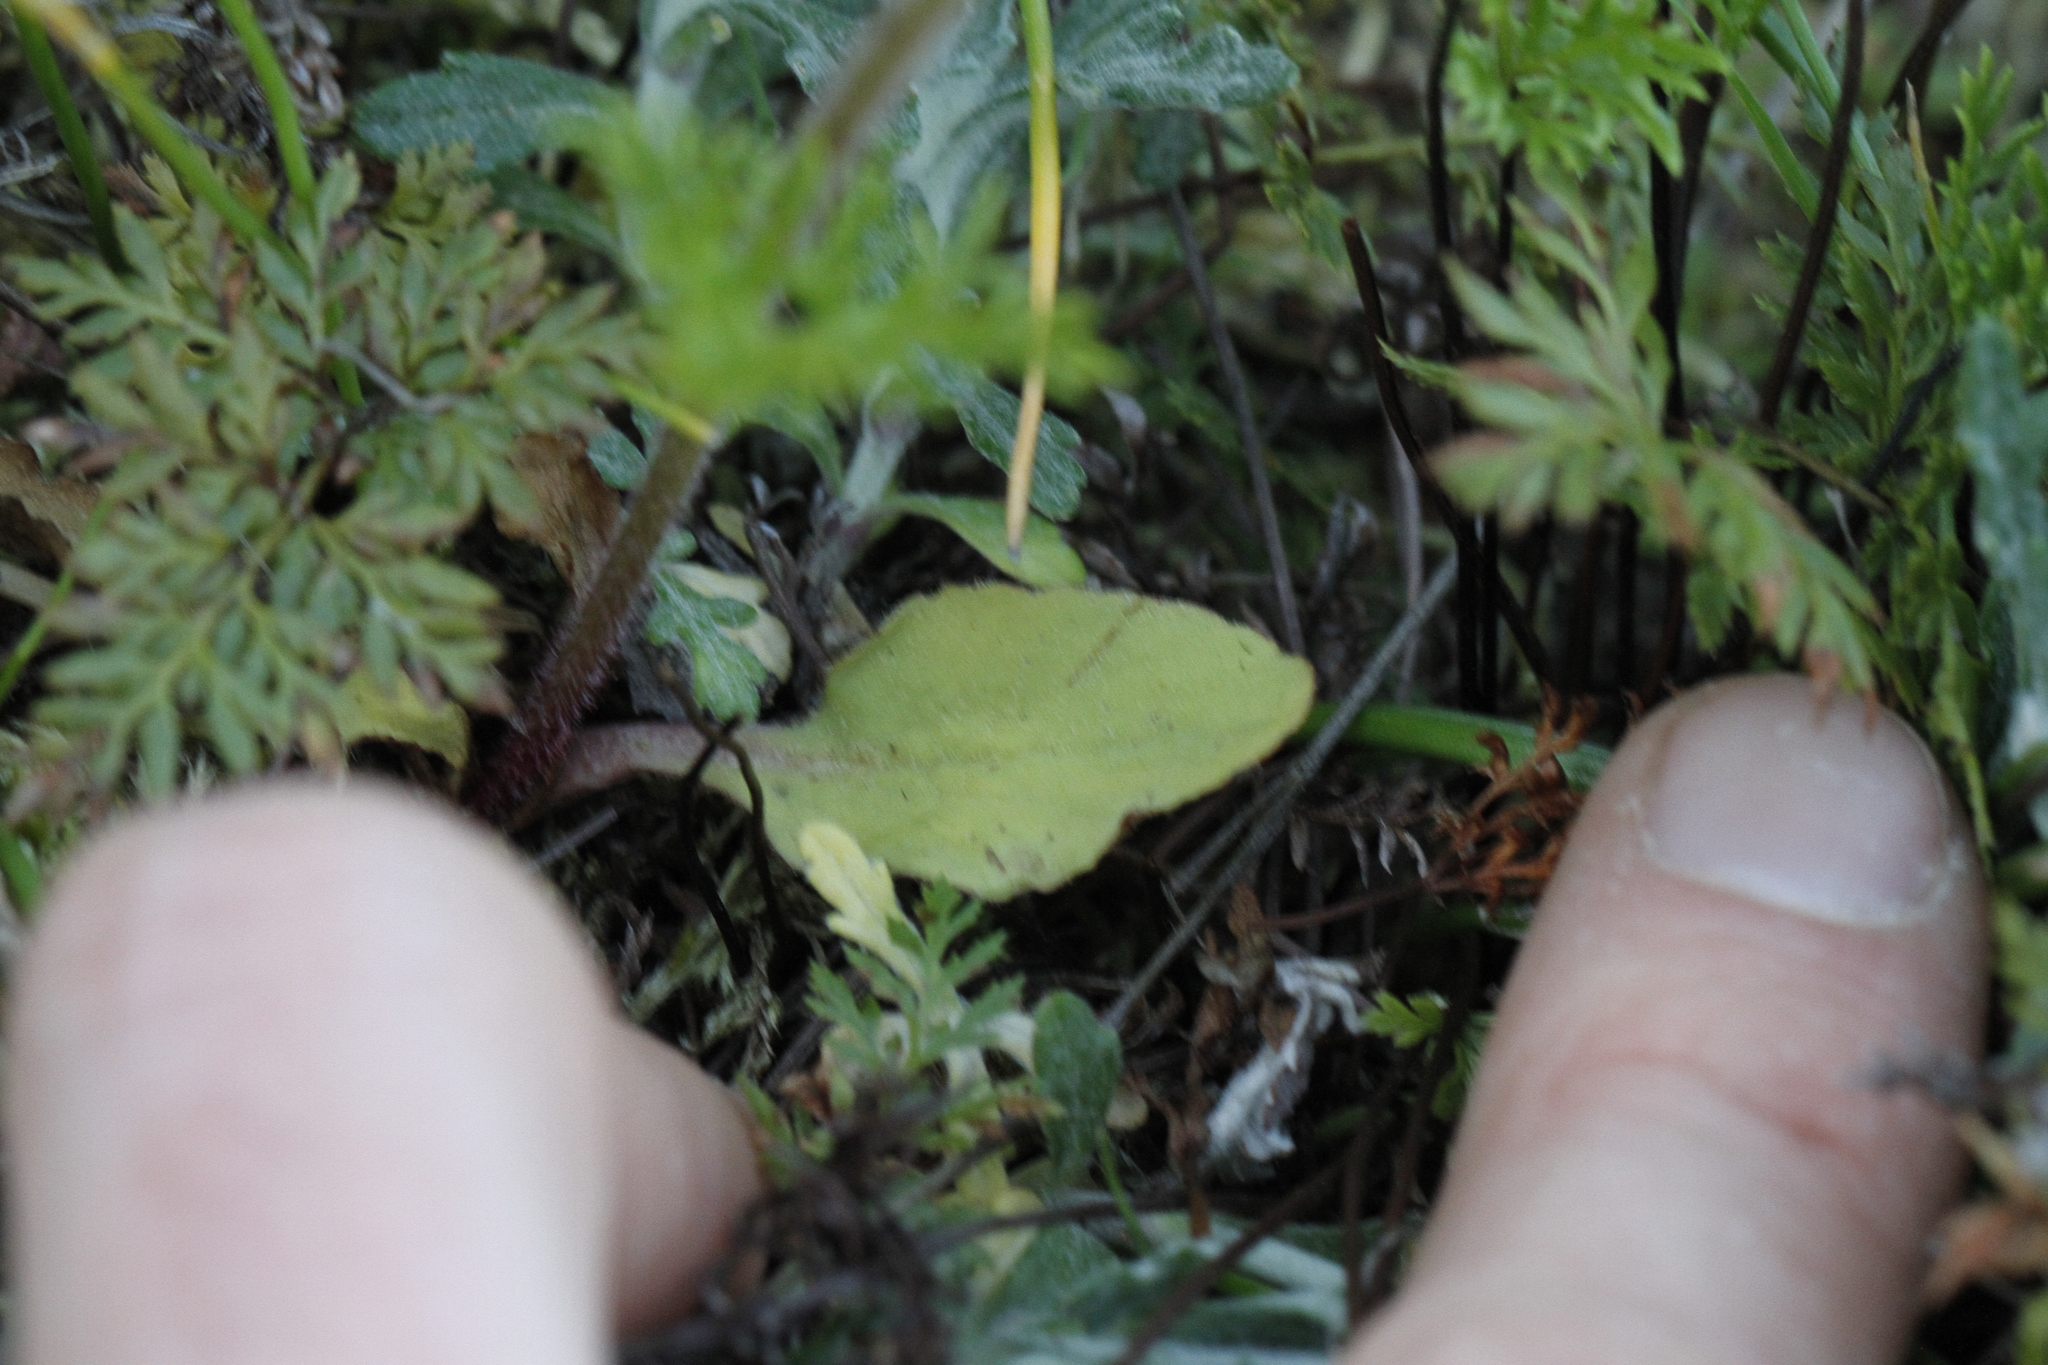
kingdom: Plantae
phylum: Tracheophyta
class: Magnoliopsida
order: Saxifragales
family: Saxifragaceae
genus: Micranthes
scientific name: Micranthes integrifolia
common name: Wholeleaf saxifrage
